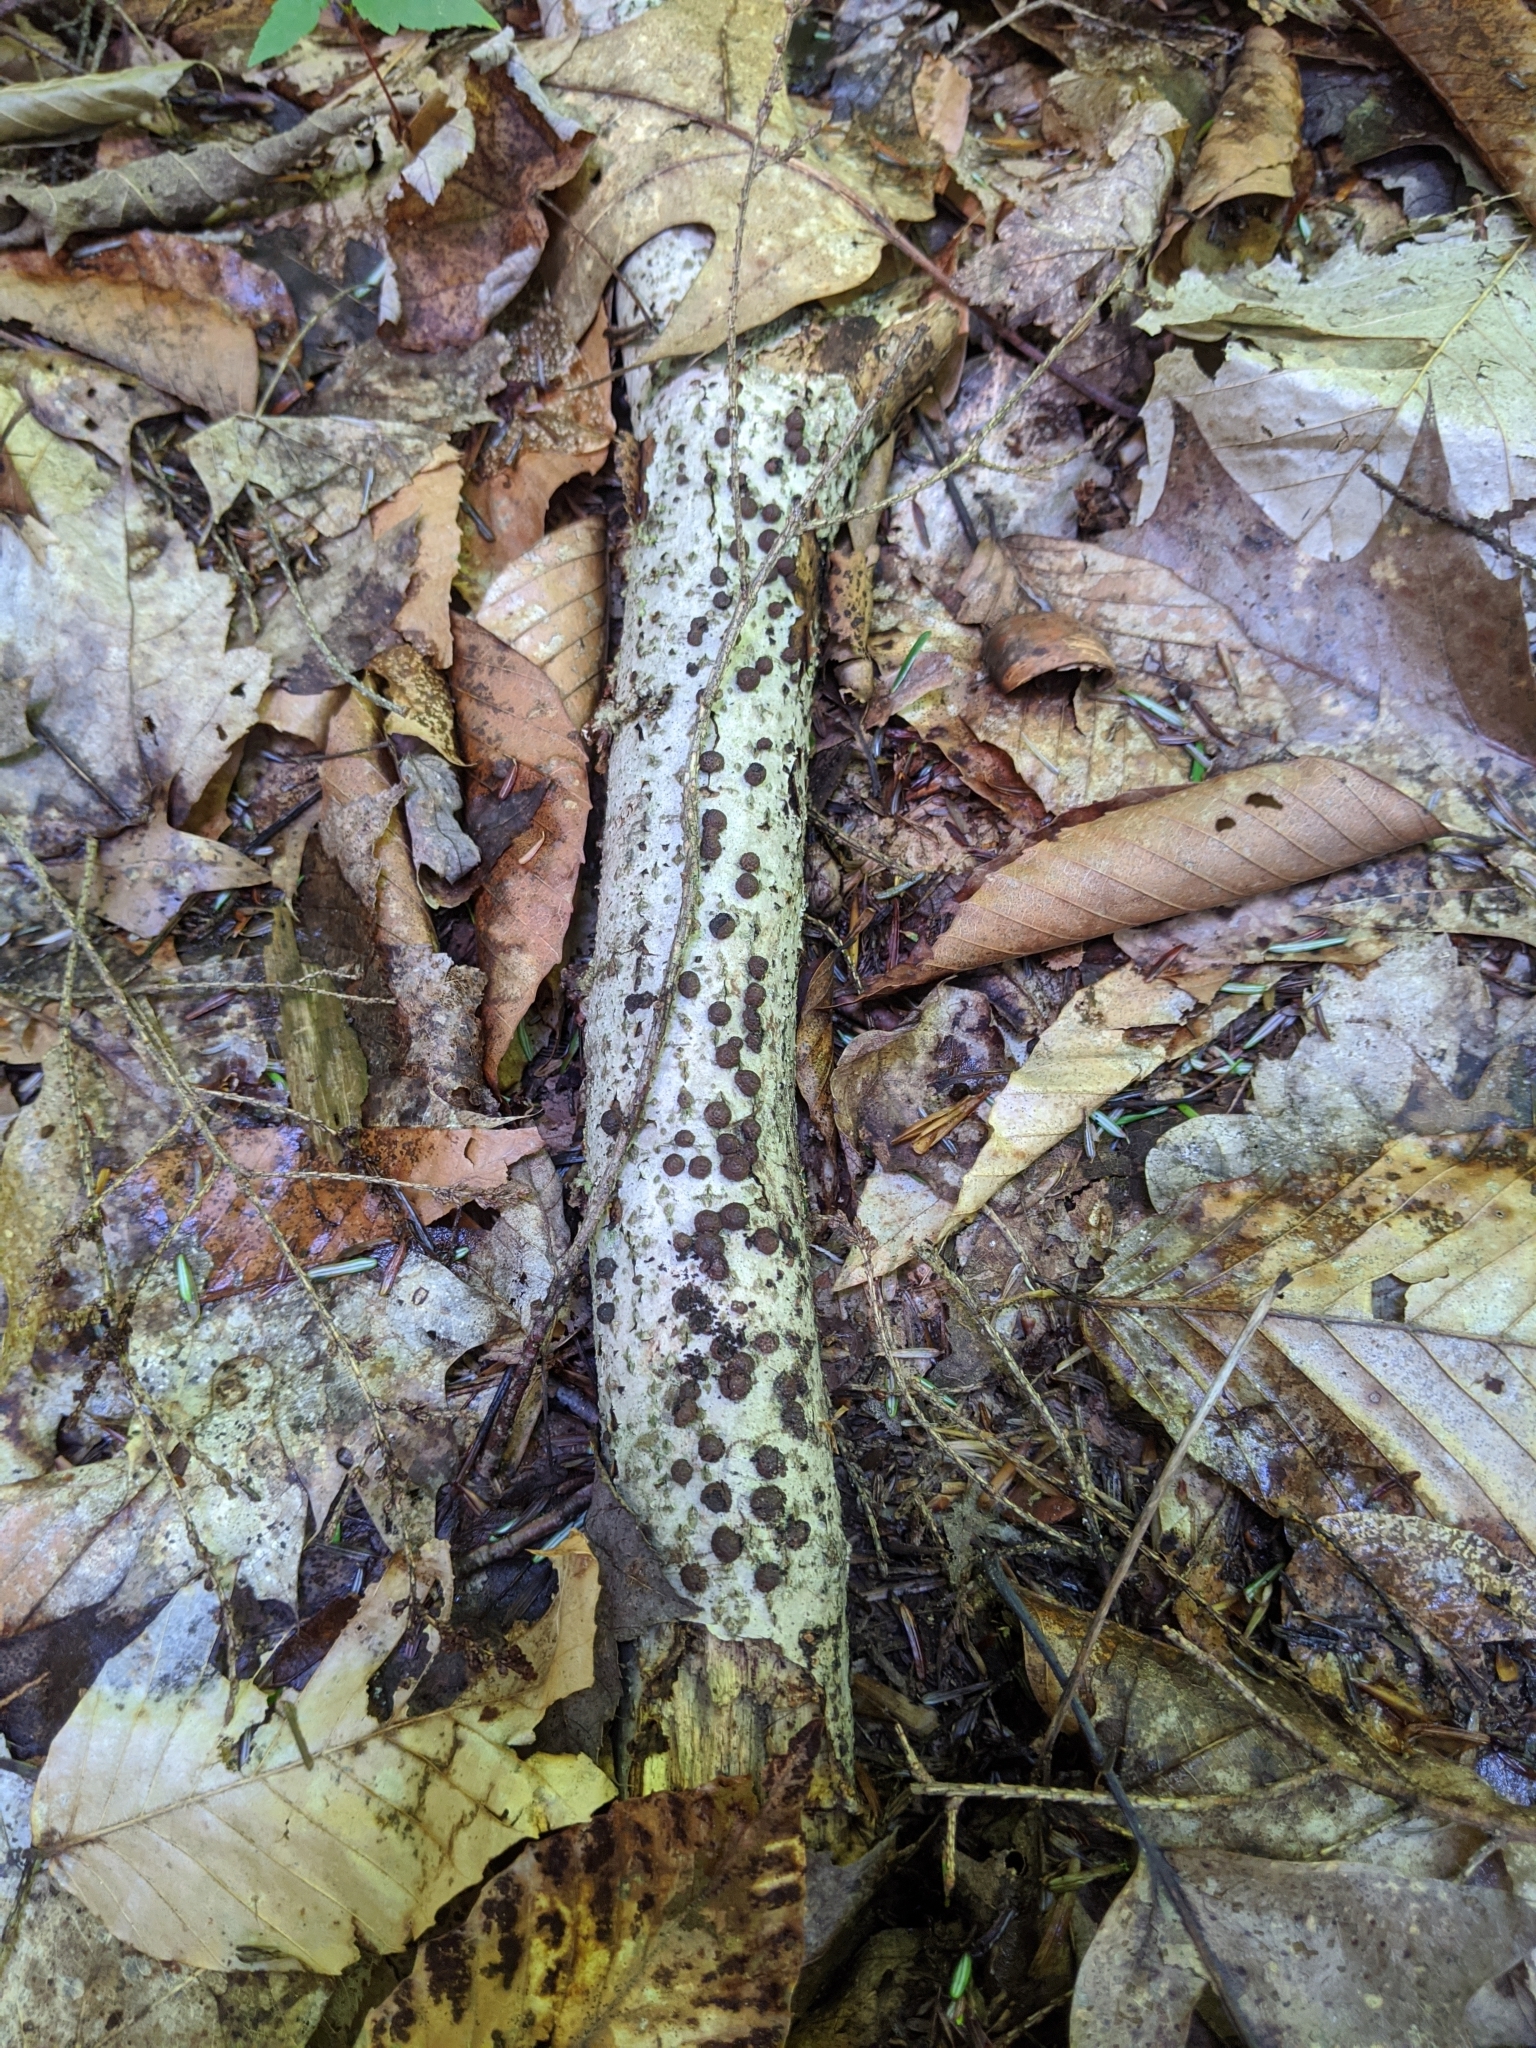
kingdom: Fungi
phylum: Ascomycota
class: Sordariomycetes
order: Xylariales
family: Hypoxylaceae
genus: Hypoxylon
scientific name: Hypoxylon fragiforme
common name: Beech woodwart
